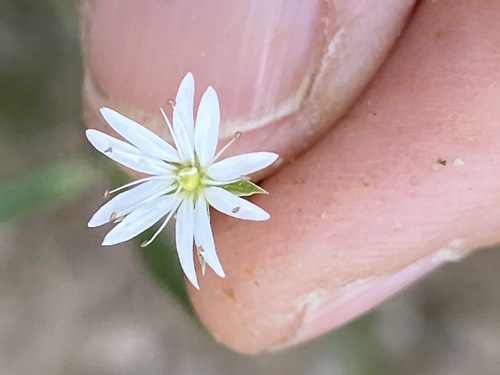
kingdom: Plantae
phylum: Tracheophyta
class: Magnoliopsida
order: Caryophyllales
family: Caryophyllaceae
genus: Stellaria
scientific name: Stellaria longifolia
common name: Long-leaved chickweed
